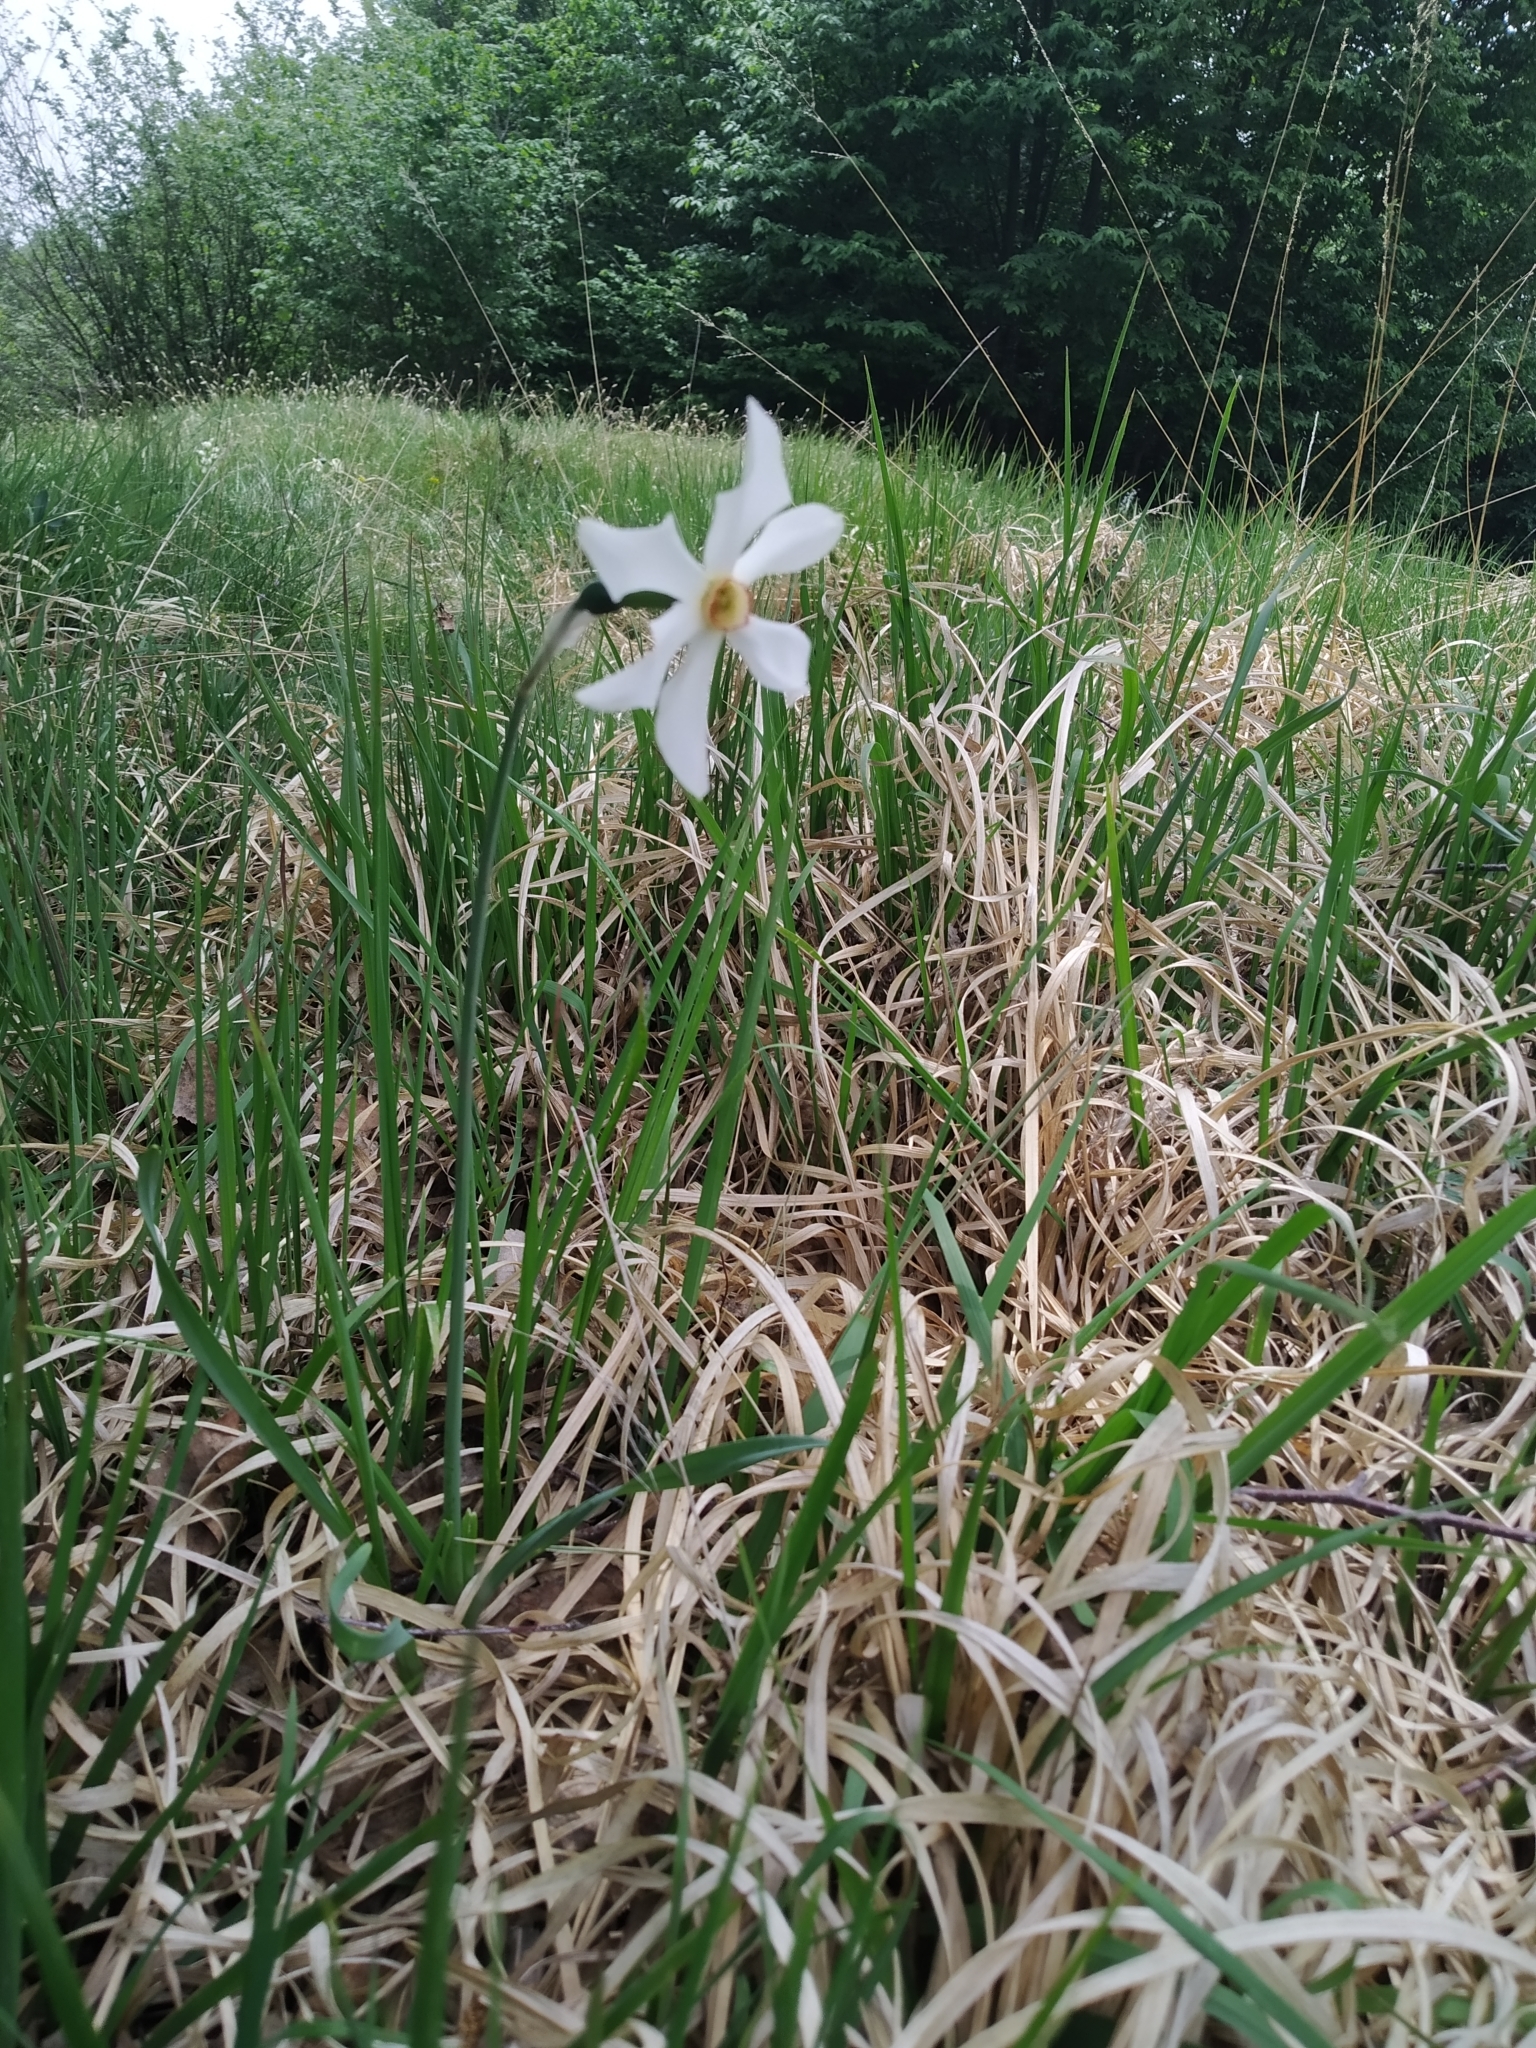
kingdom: Plantae
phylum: Tracheophyta
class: Liliopsida
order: Asparagales
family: Amaryllidaceae
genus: Narcissus
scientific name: Narcissus poeticus
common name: Pheasant's-eye daffodil
